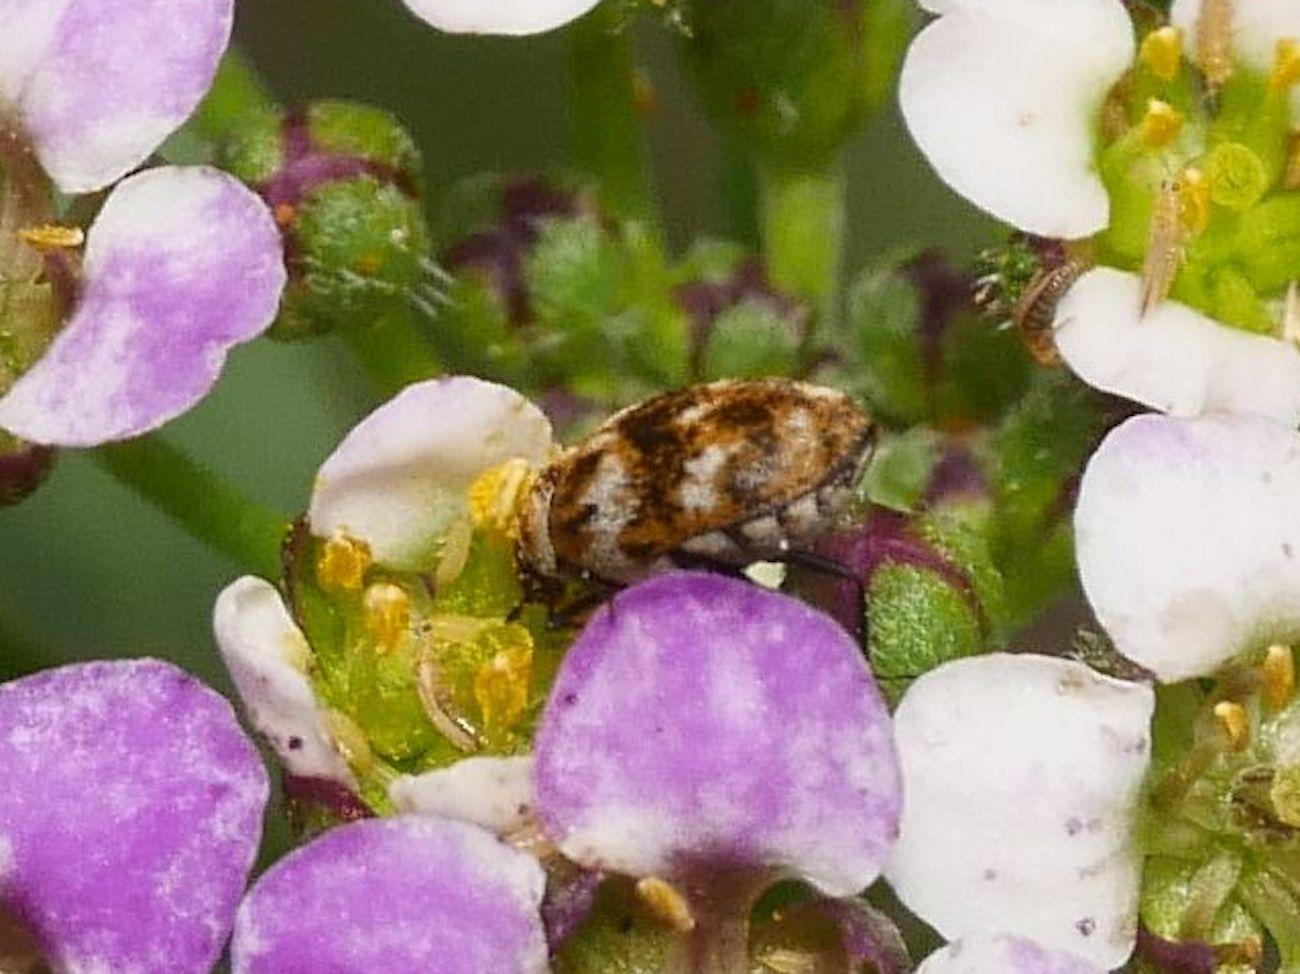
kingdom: Animalia
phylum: Arthropoda
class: Insecta
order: Coleoptera
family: Dermestidae
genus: Anthrenus
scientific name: Anthrenus verbasci
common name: Varied carpet beetle
